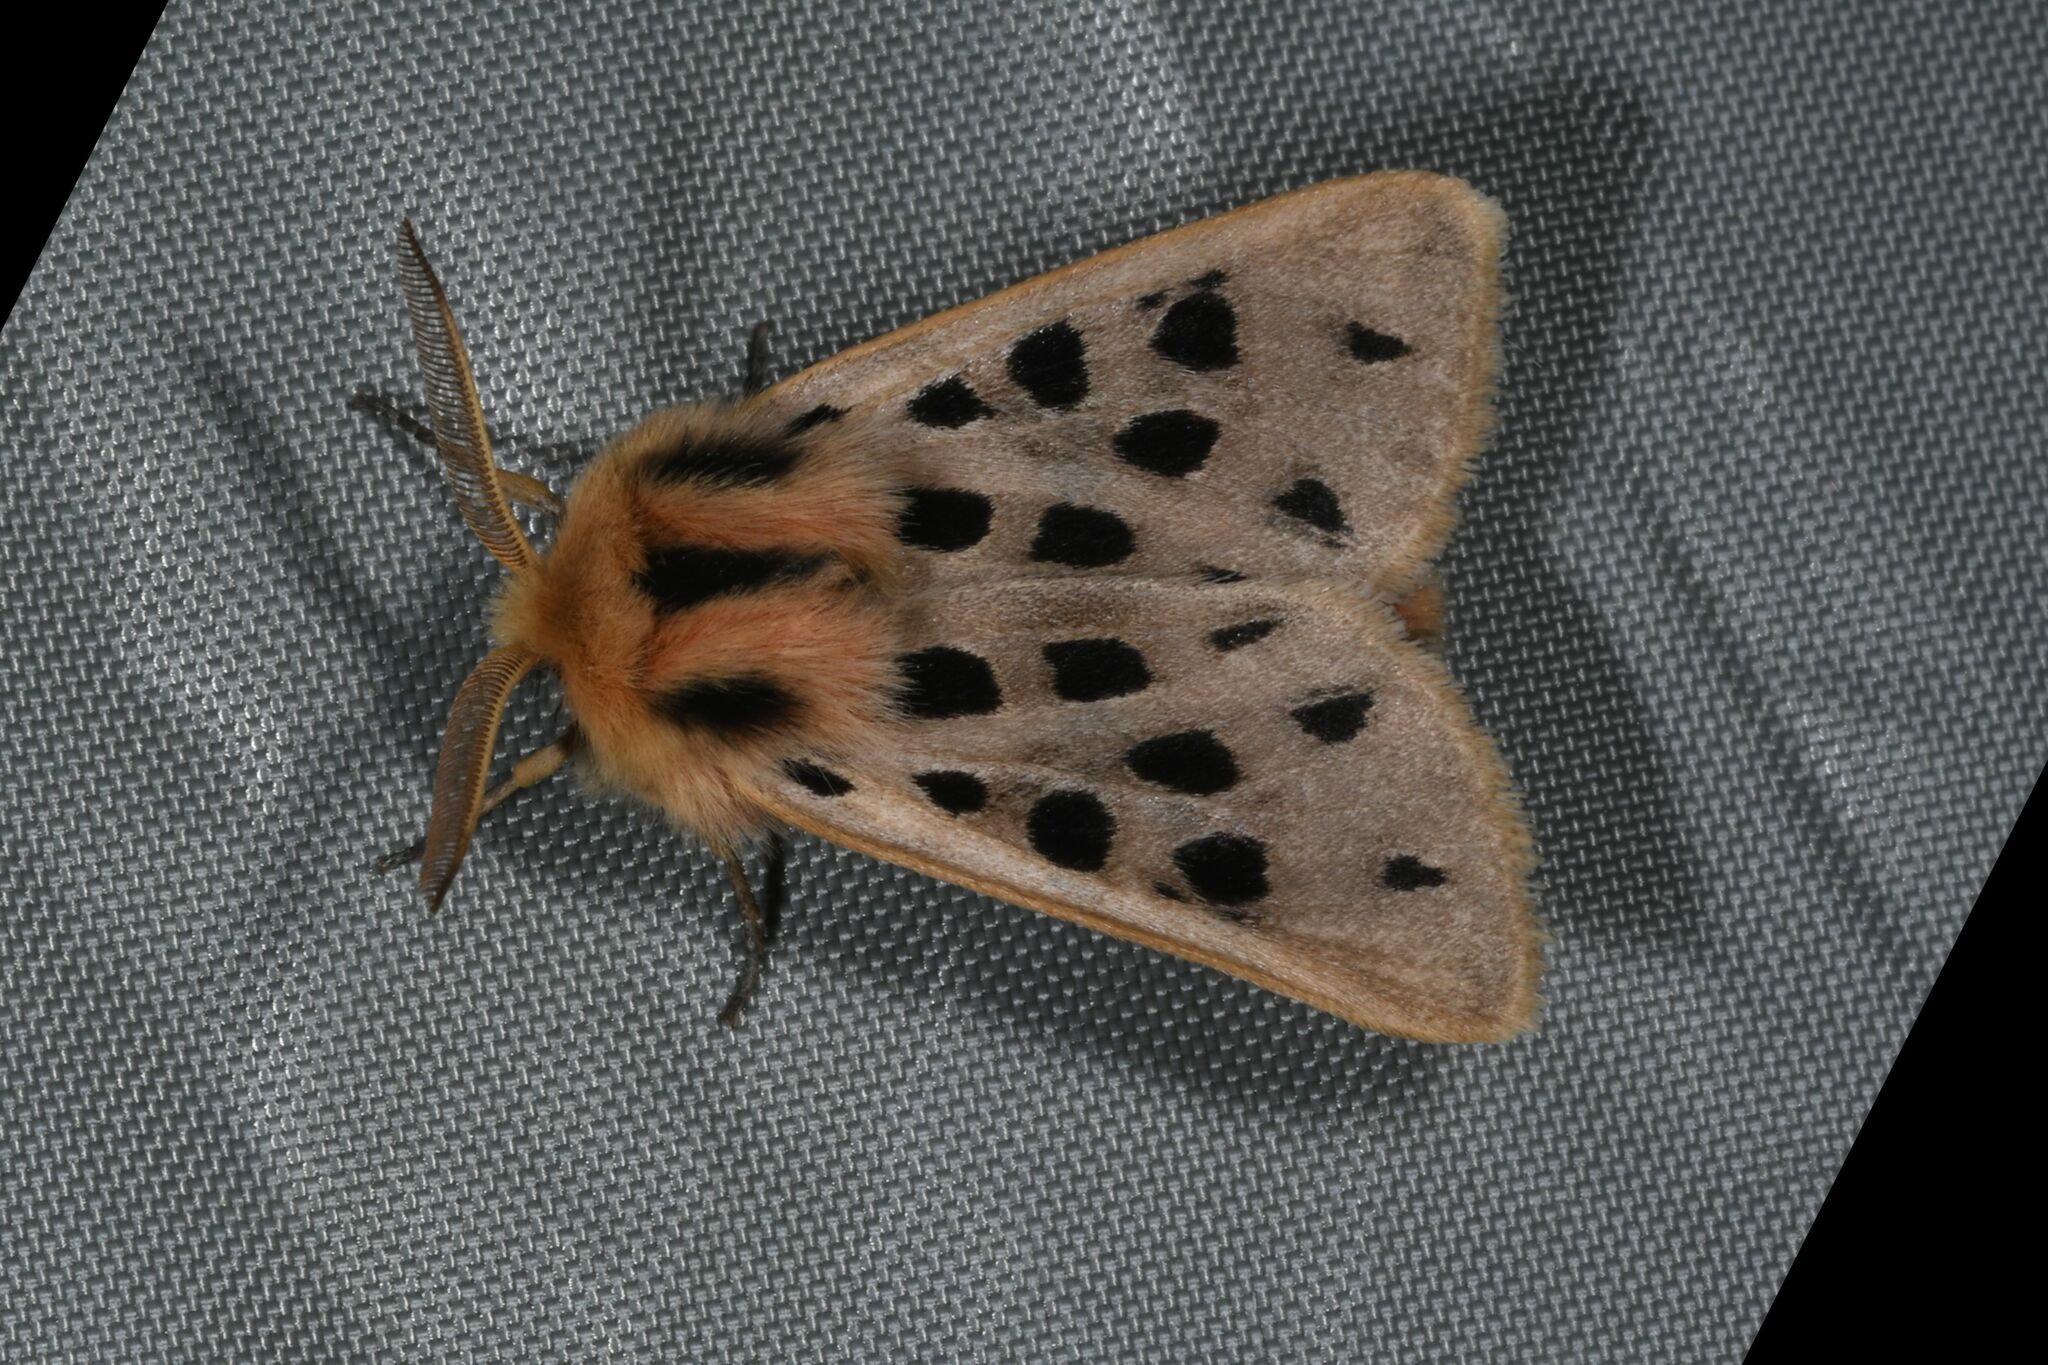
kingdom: Animalia
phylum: Arthropoda
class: Insecta
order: Lepidoptera
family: Erebidae
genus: Chelis
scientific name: Chelis maculosa
